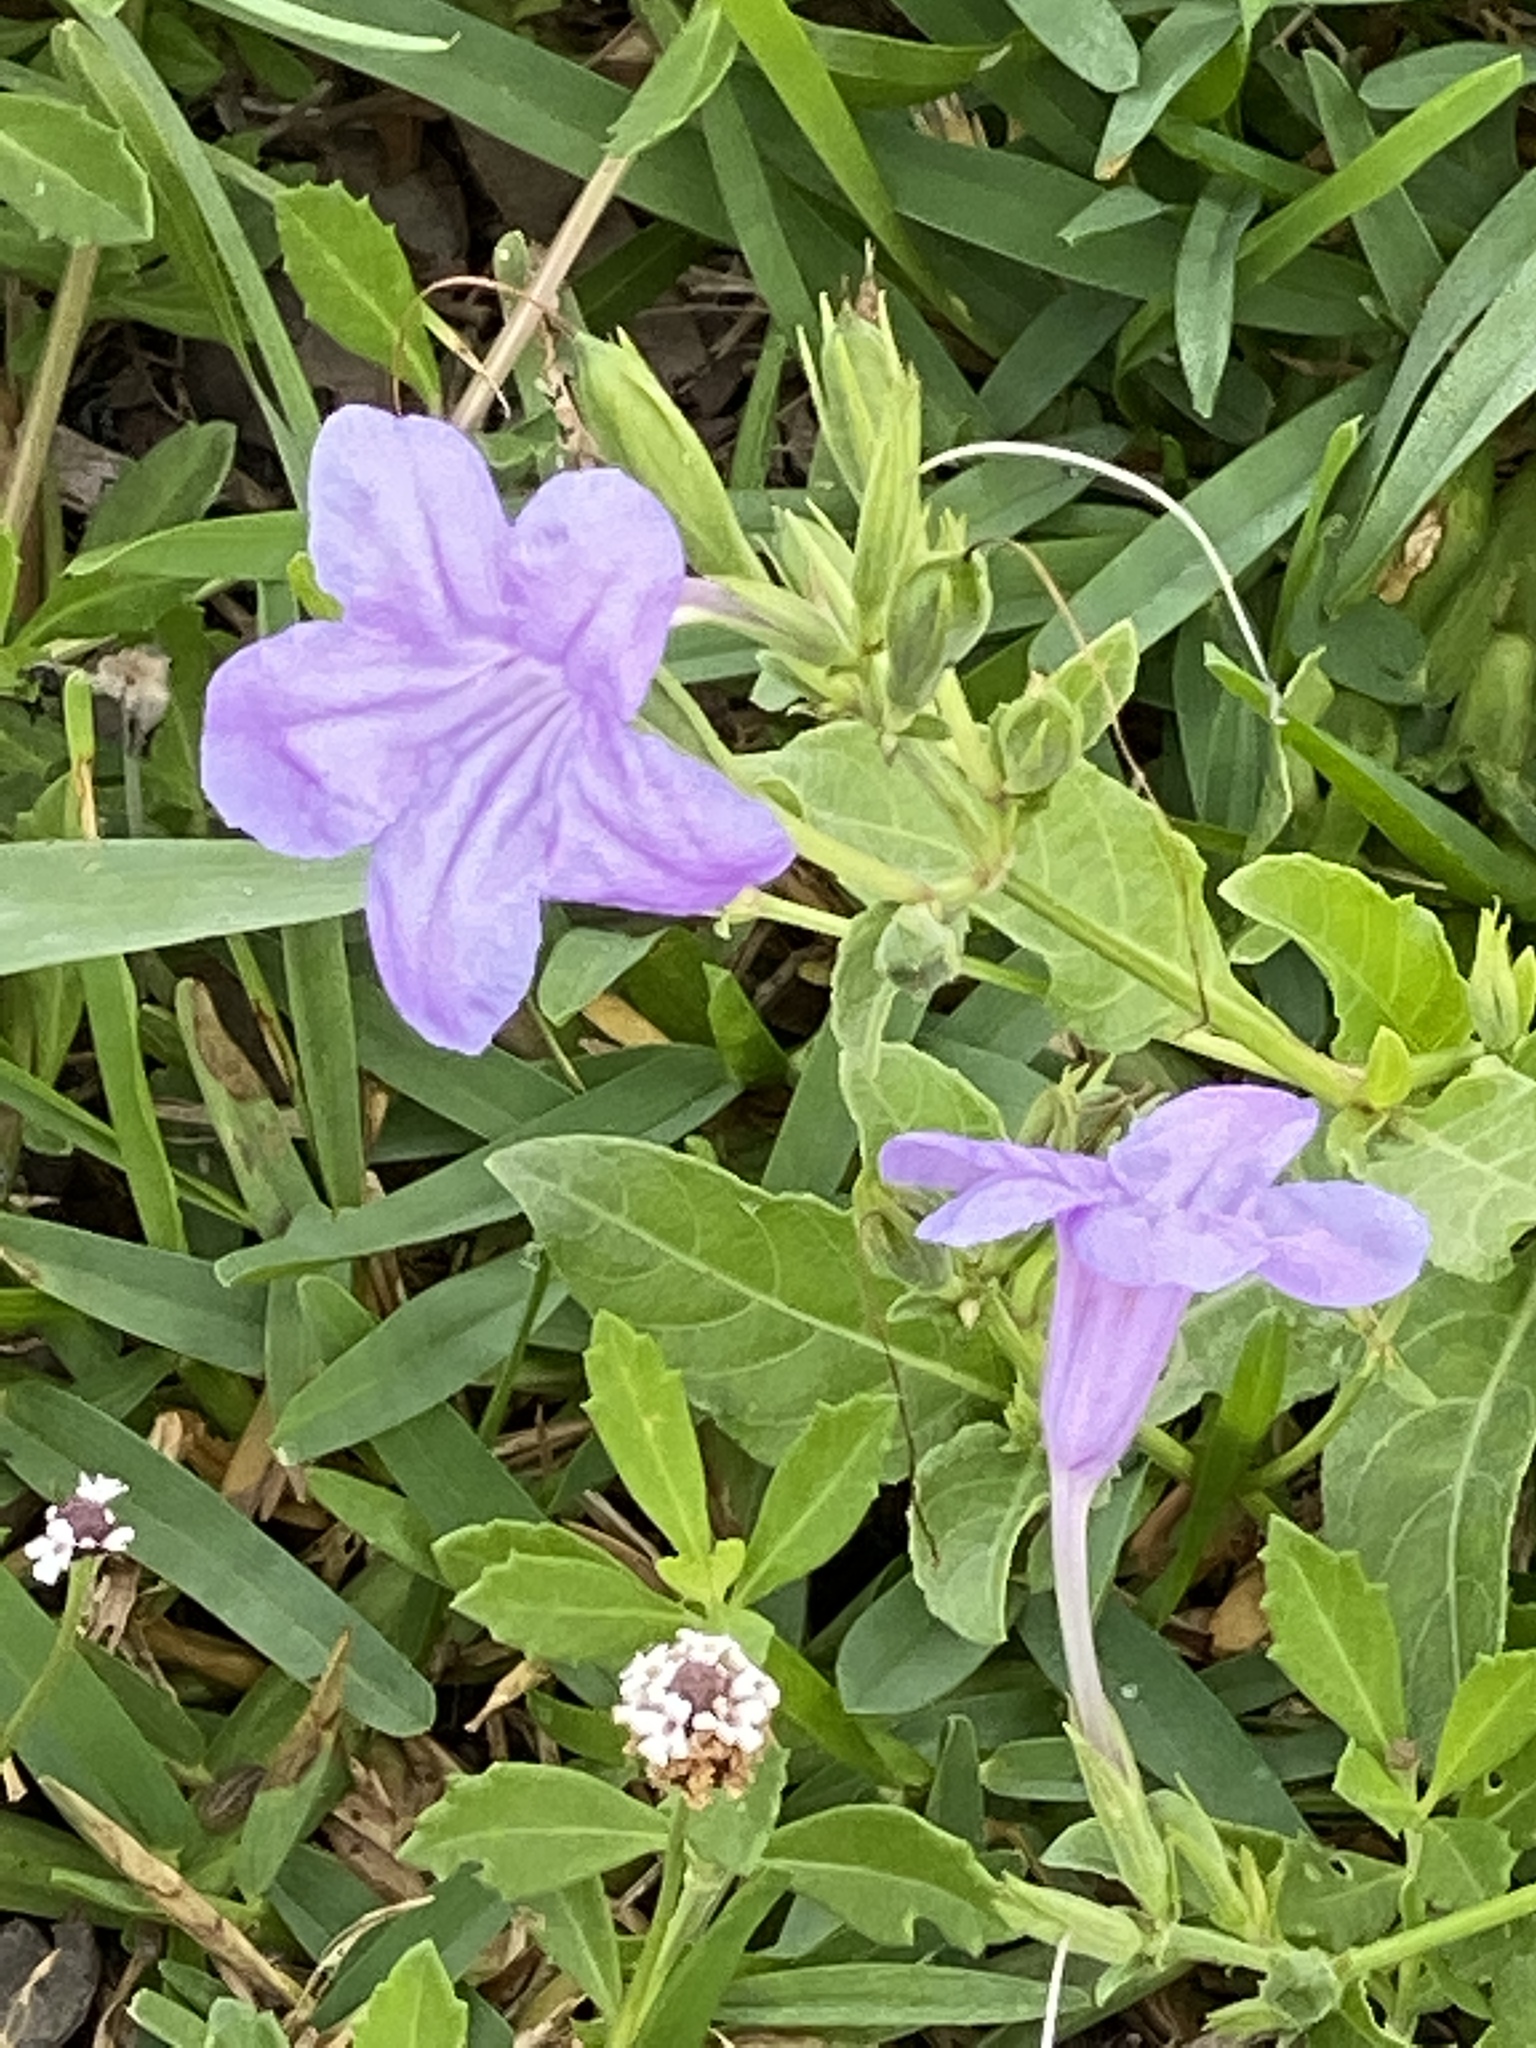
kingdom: Plantae
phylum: Tracheophyta
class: Magnoliopsida
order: Lamiales
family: Acanthaceae
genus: Ruellia
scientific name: Ruellia ciliatiflora
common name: Hairyflower wild petunia
